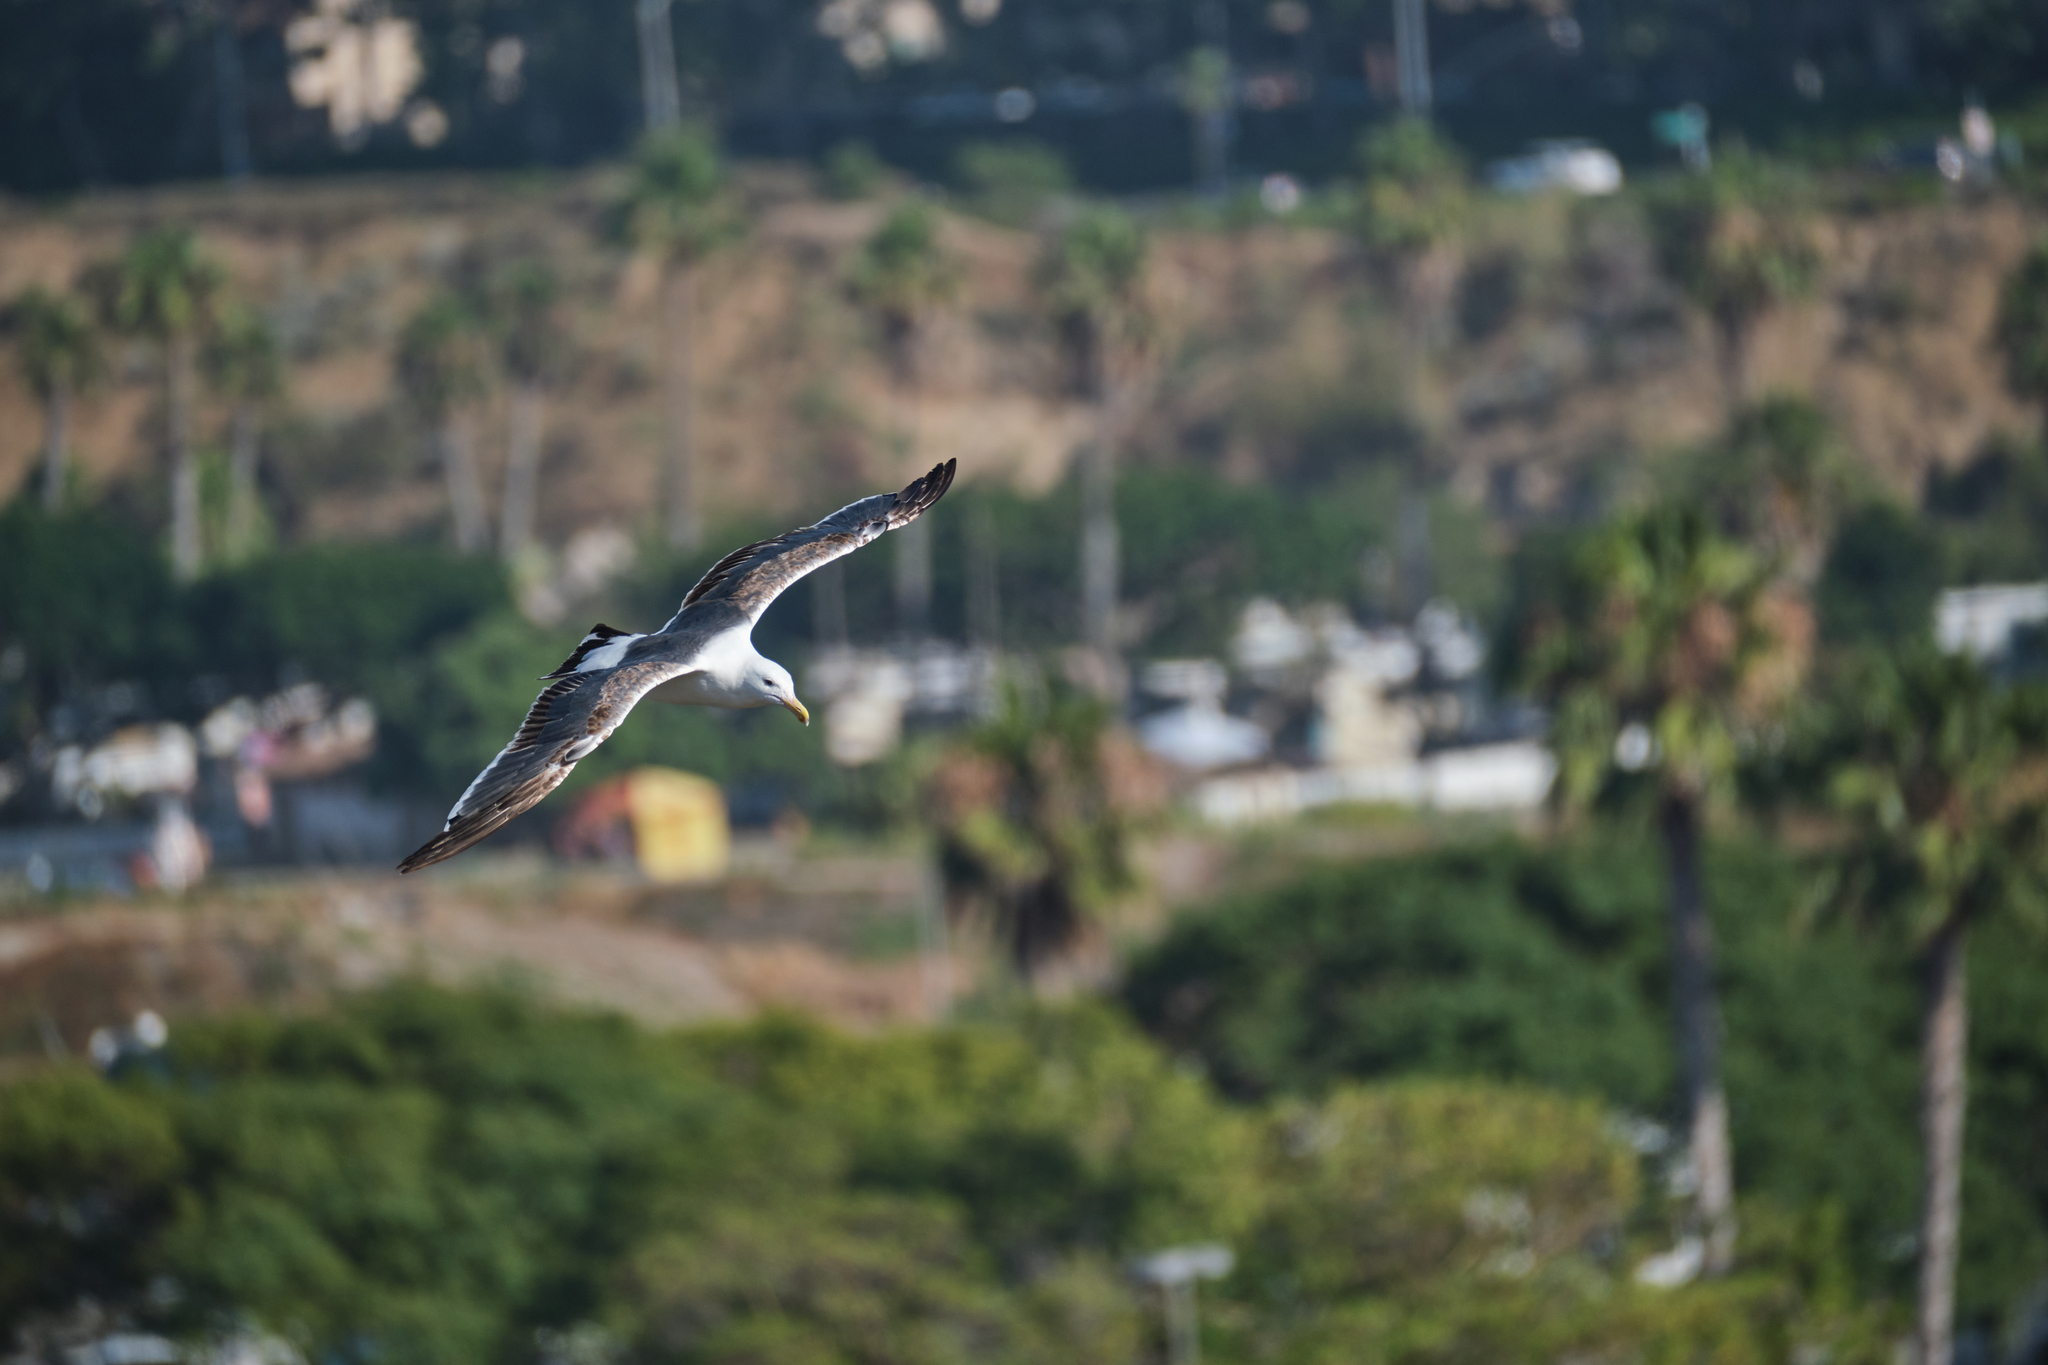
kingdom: Animalia
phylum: Chordata
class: Aves
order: Charadriiformes
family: Laridae
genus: Larus
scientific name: Larus occidentalis
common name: Western gull
